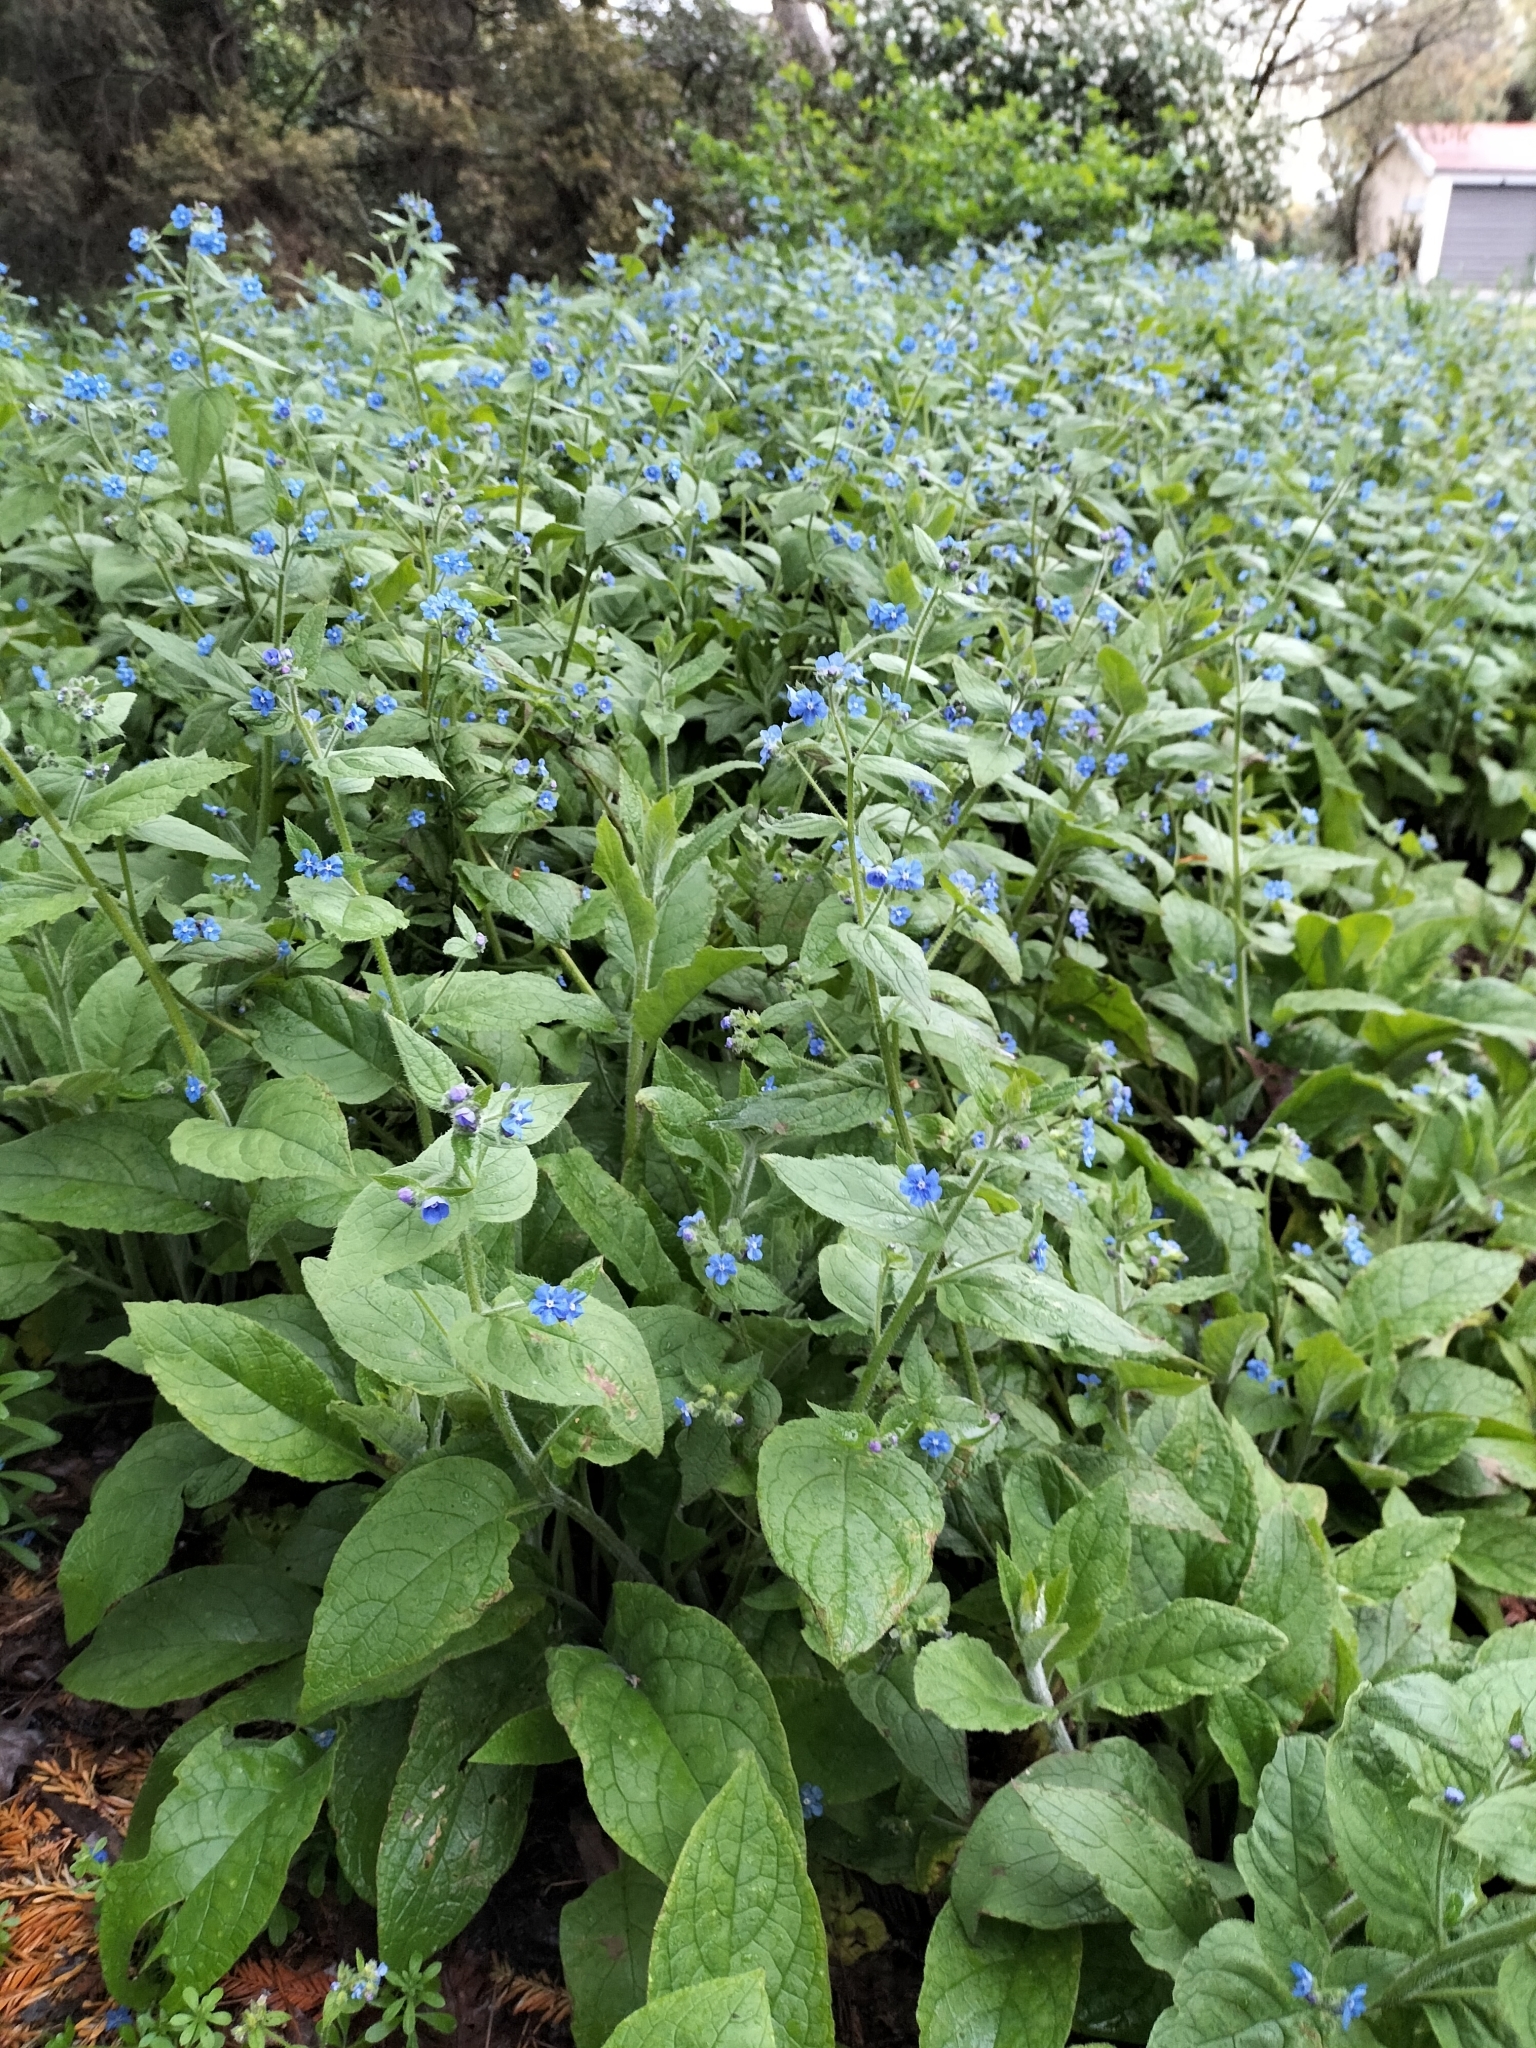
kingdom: Plantae
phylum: Tracheophyta
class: Magnoliopsida
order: Boraginales
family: Boraginaceae
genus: Pentaglottis
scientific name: Pentaglottis sempervirens
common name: Green alkanet
